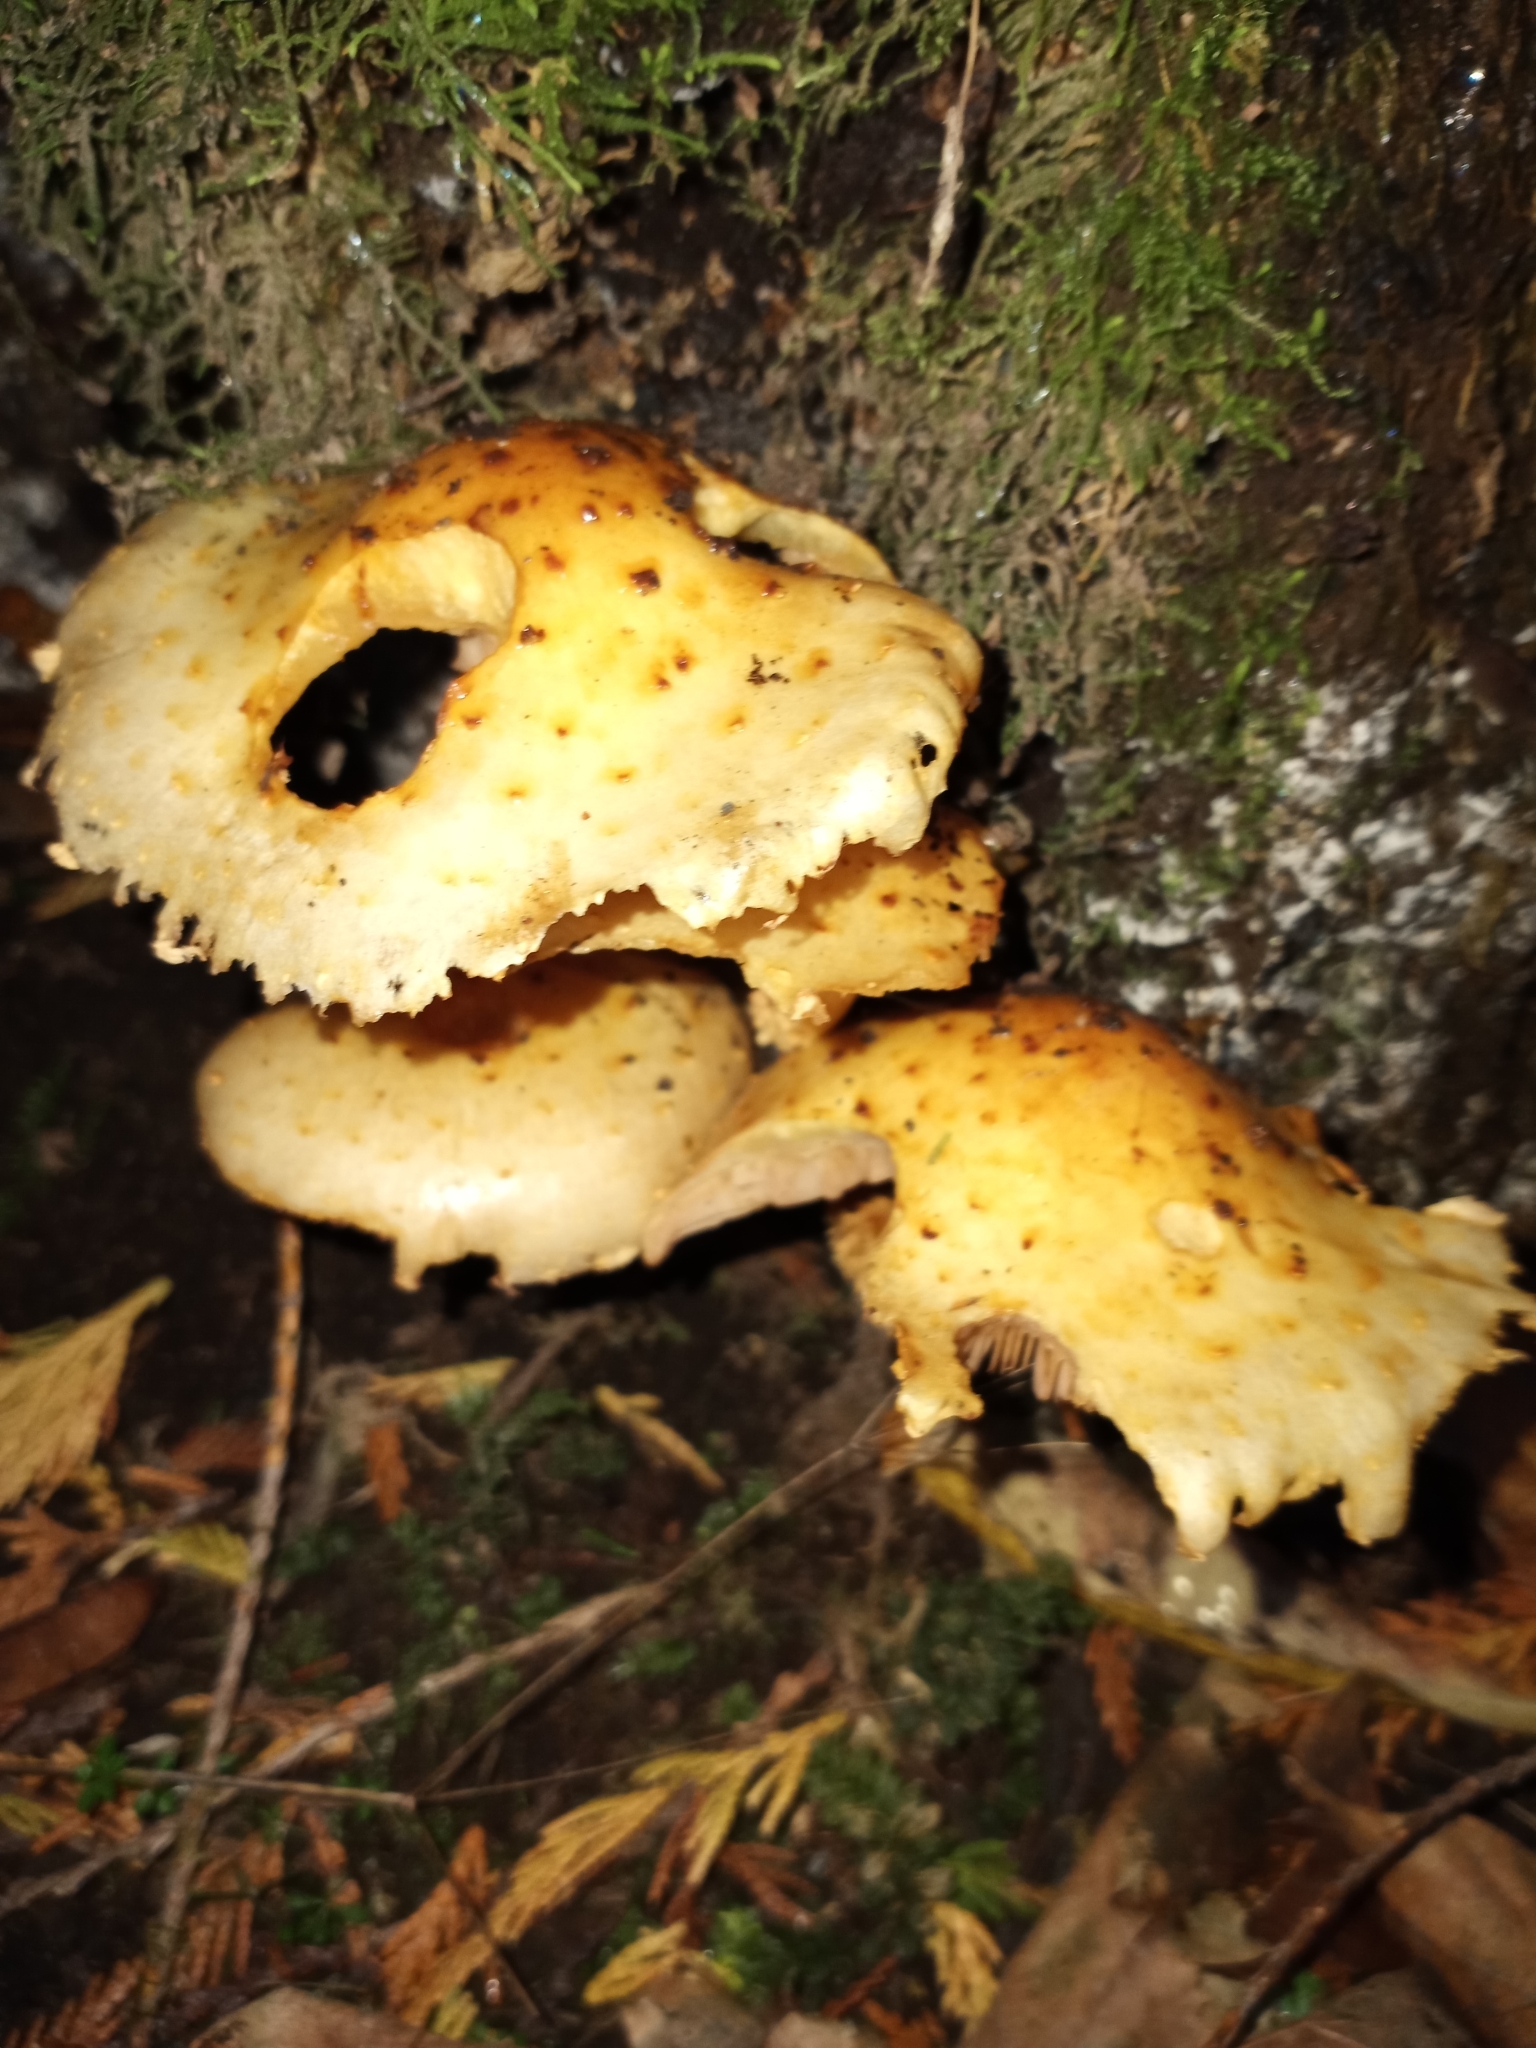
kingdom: Fungi
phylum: Basidiomycota
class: Agaricomycetes
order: Agaricales
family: Strophariaceae
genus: Pholiota
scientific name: Pholiota aurivella
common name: Golden scalycap
